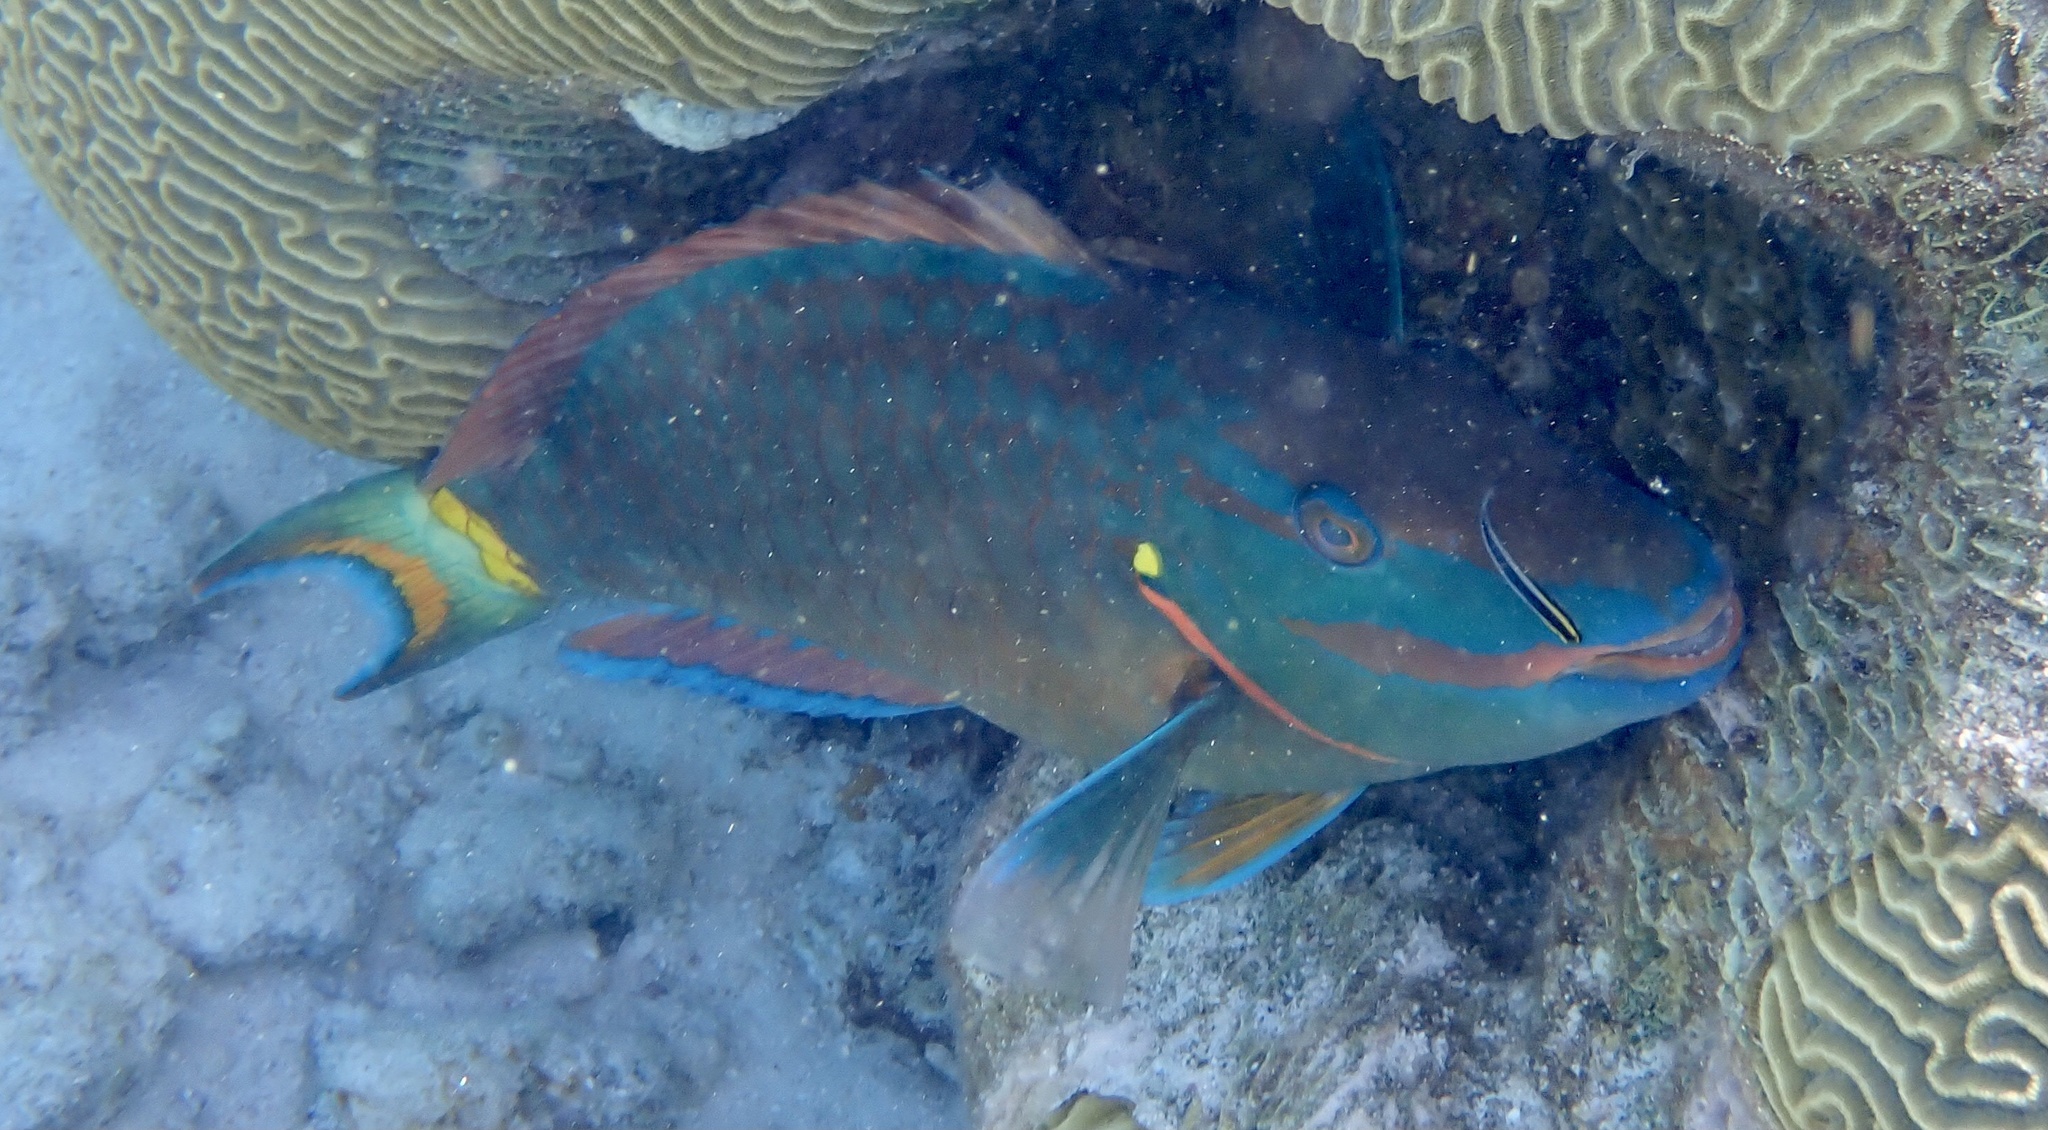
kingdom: Animalia
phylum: Chordata
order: Perciformes
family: Scaridae
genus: Sparisoma
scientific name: Sparisoma viride
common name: Stoplight parrotfish
